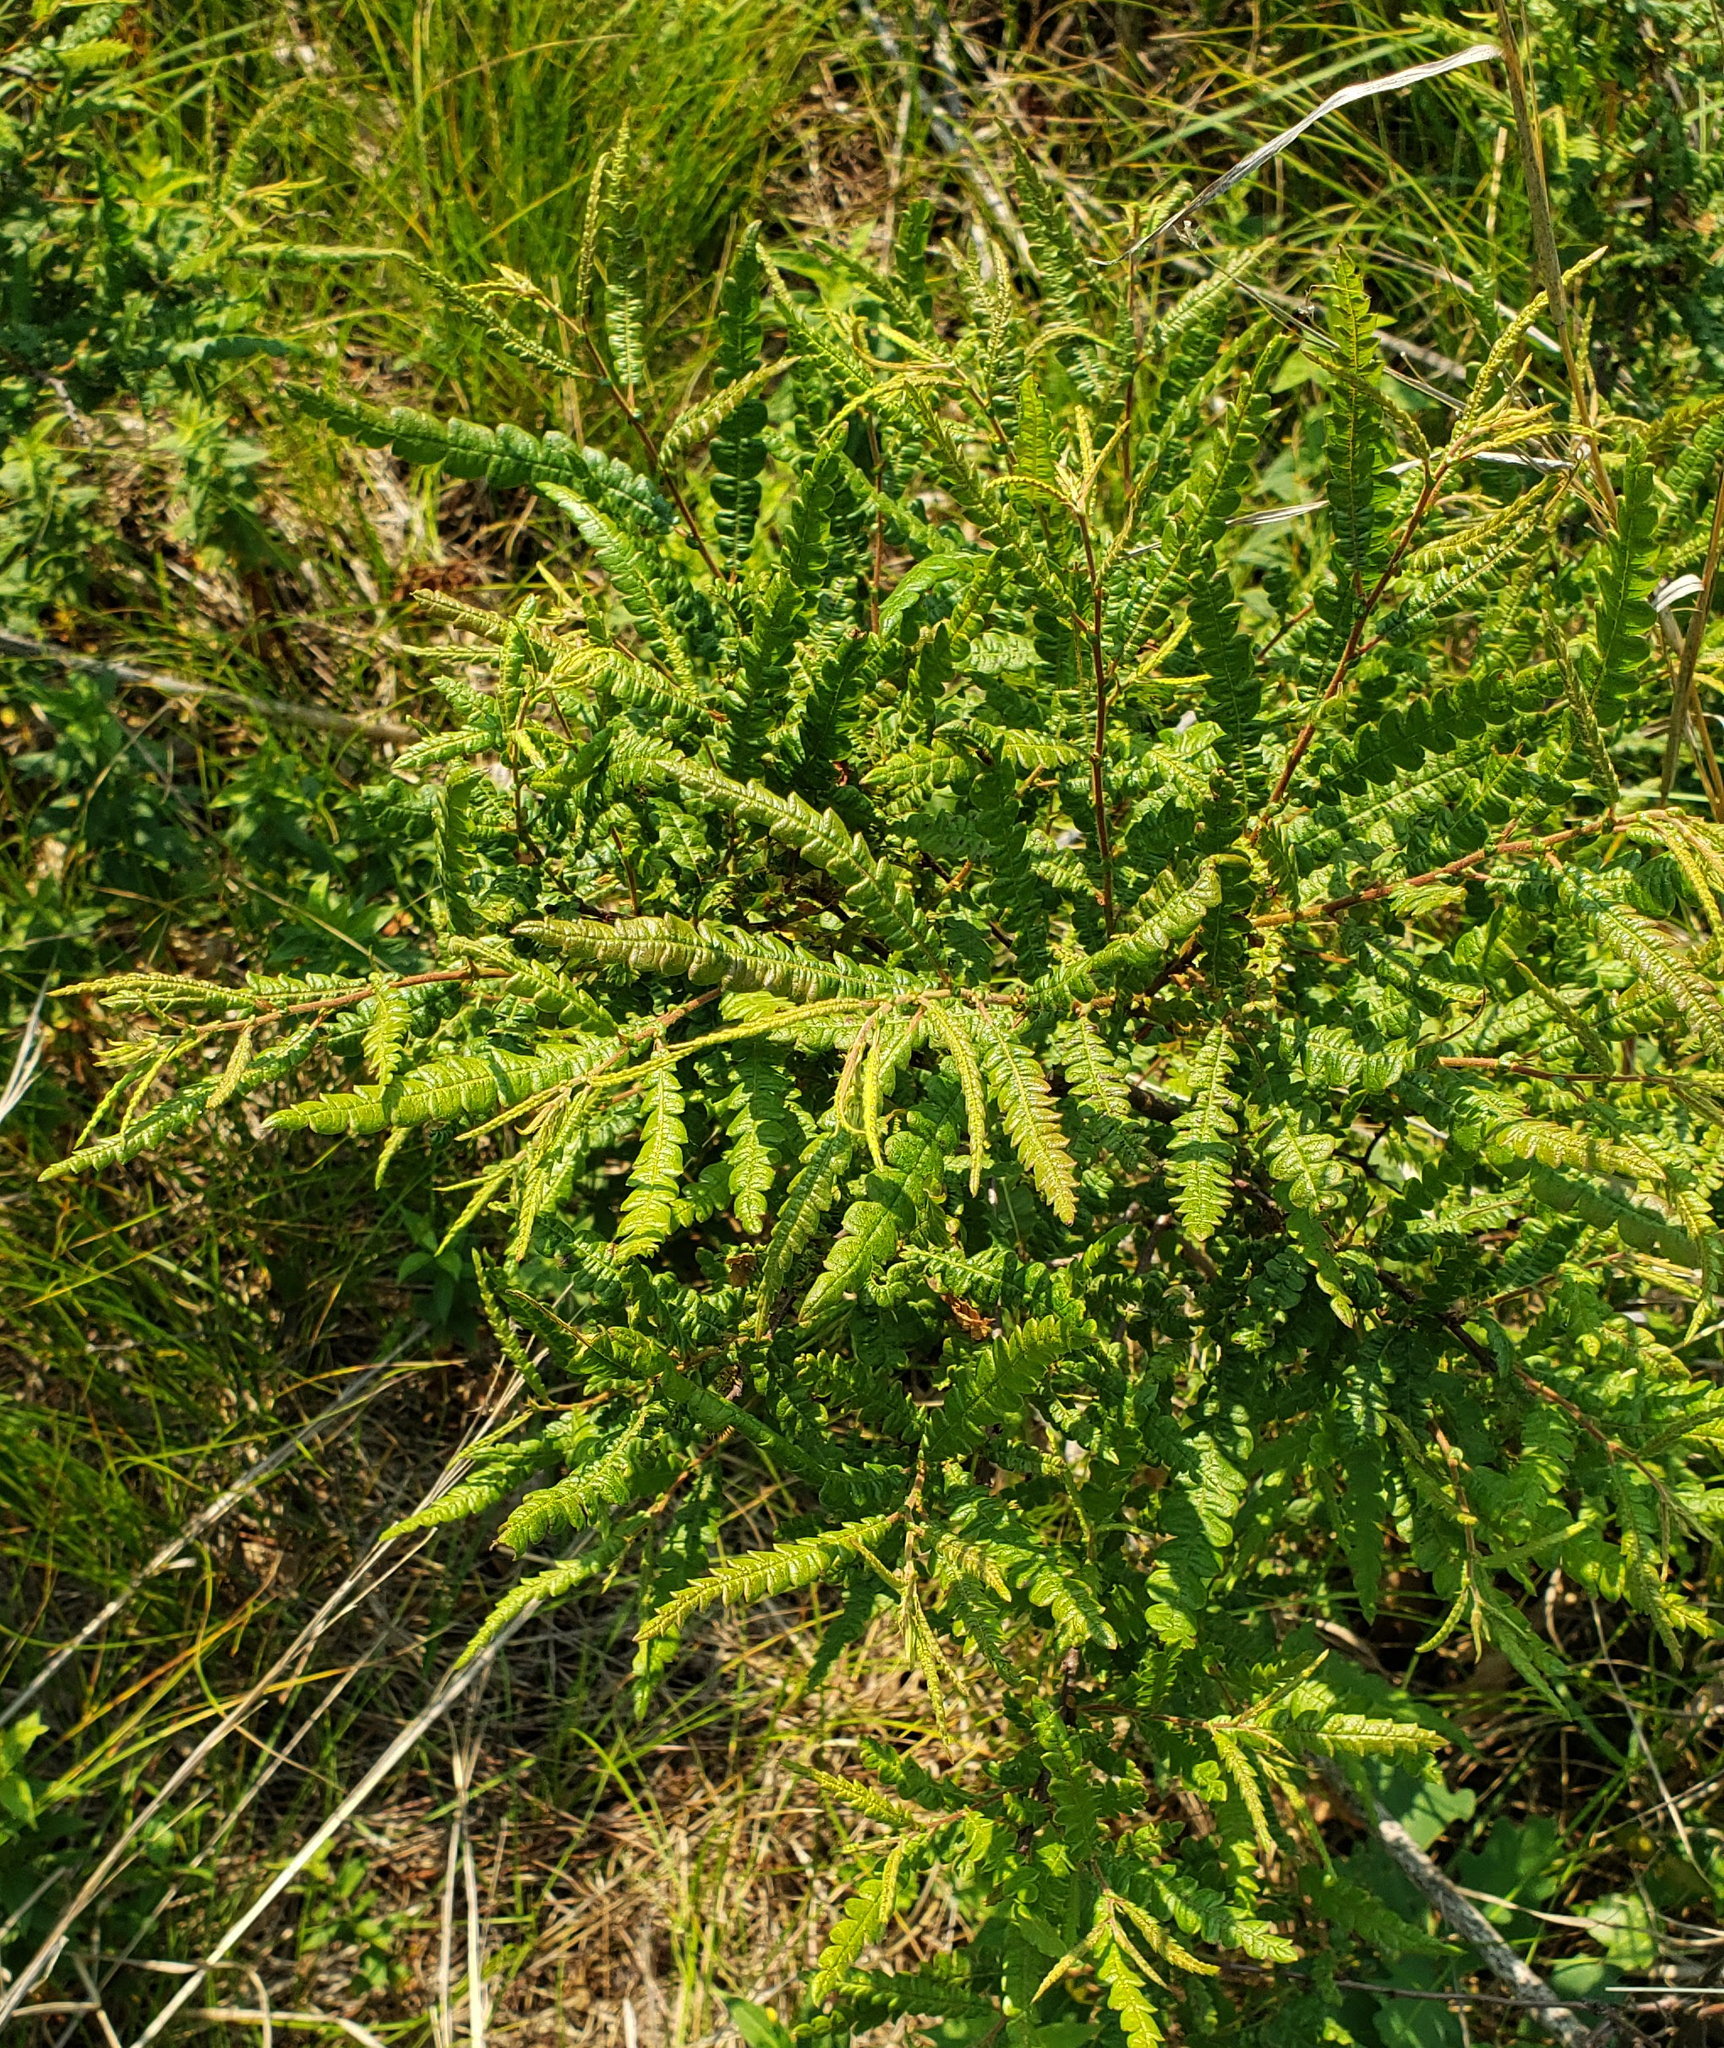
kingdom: Plantae
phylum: Tracheophyta
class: Magnoliopsida
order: Fagales
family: Myricaceae
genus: Comptonia
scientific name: Comptonia peregrina
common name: Sweet-fern
